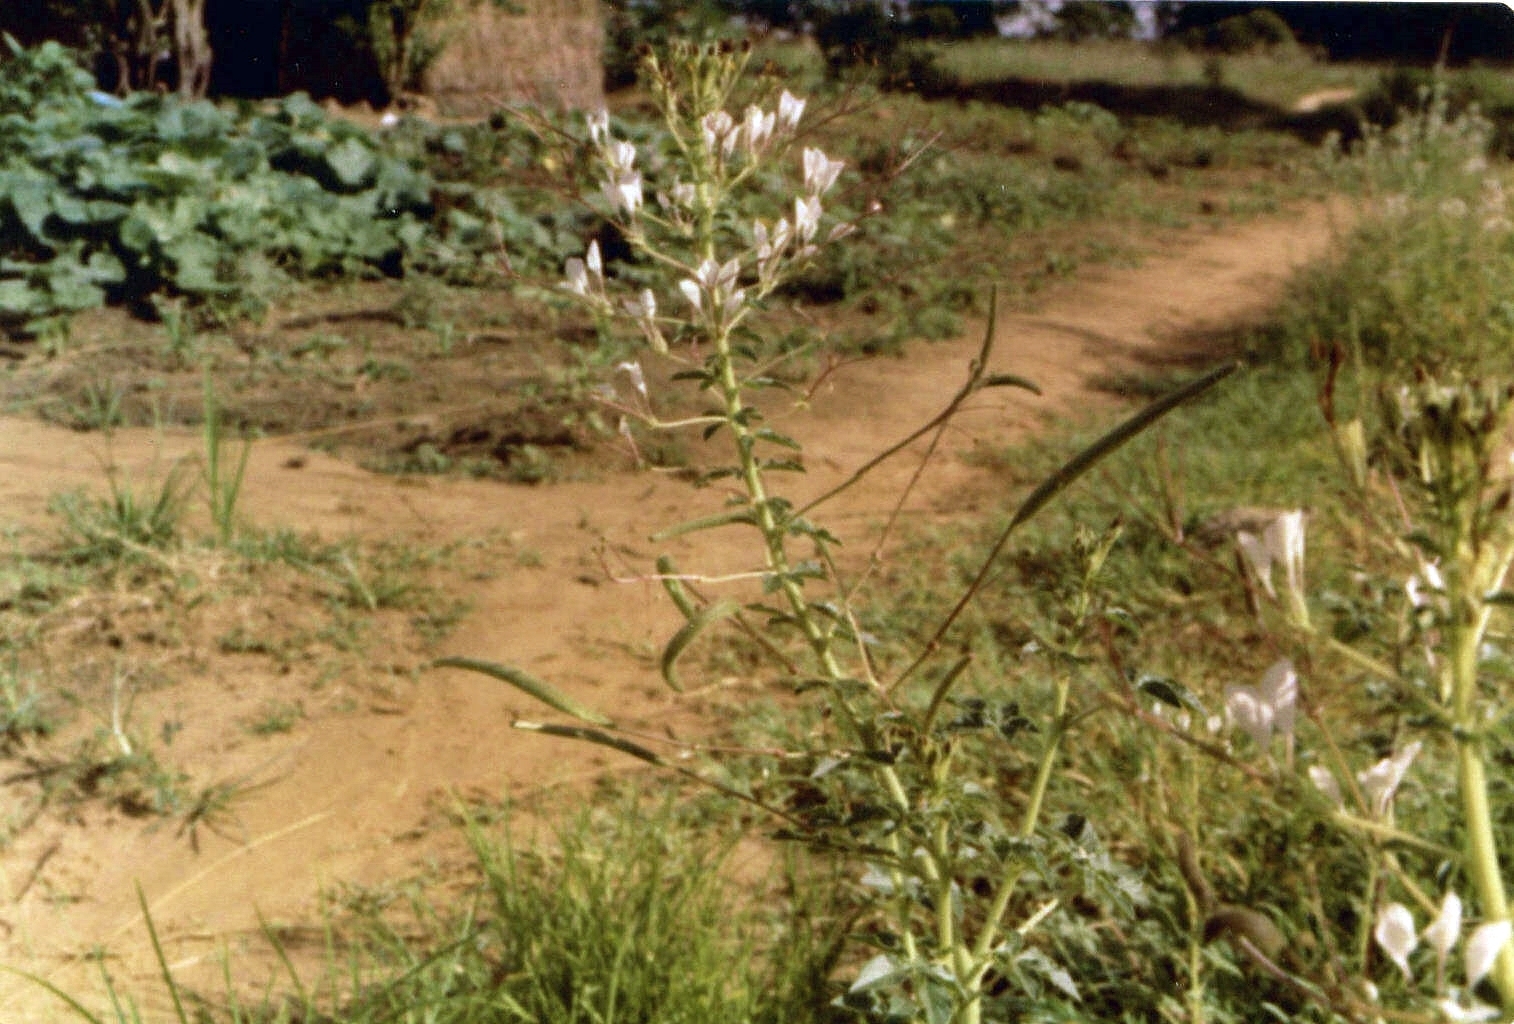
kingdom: Plantae
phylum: Tracheophyta
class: Magnoliopsida
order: Brassicales
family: Cleomaceae
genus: Gynandropsis
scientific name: Gynandropsis gynandra
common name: Spiderwisp
